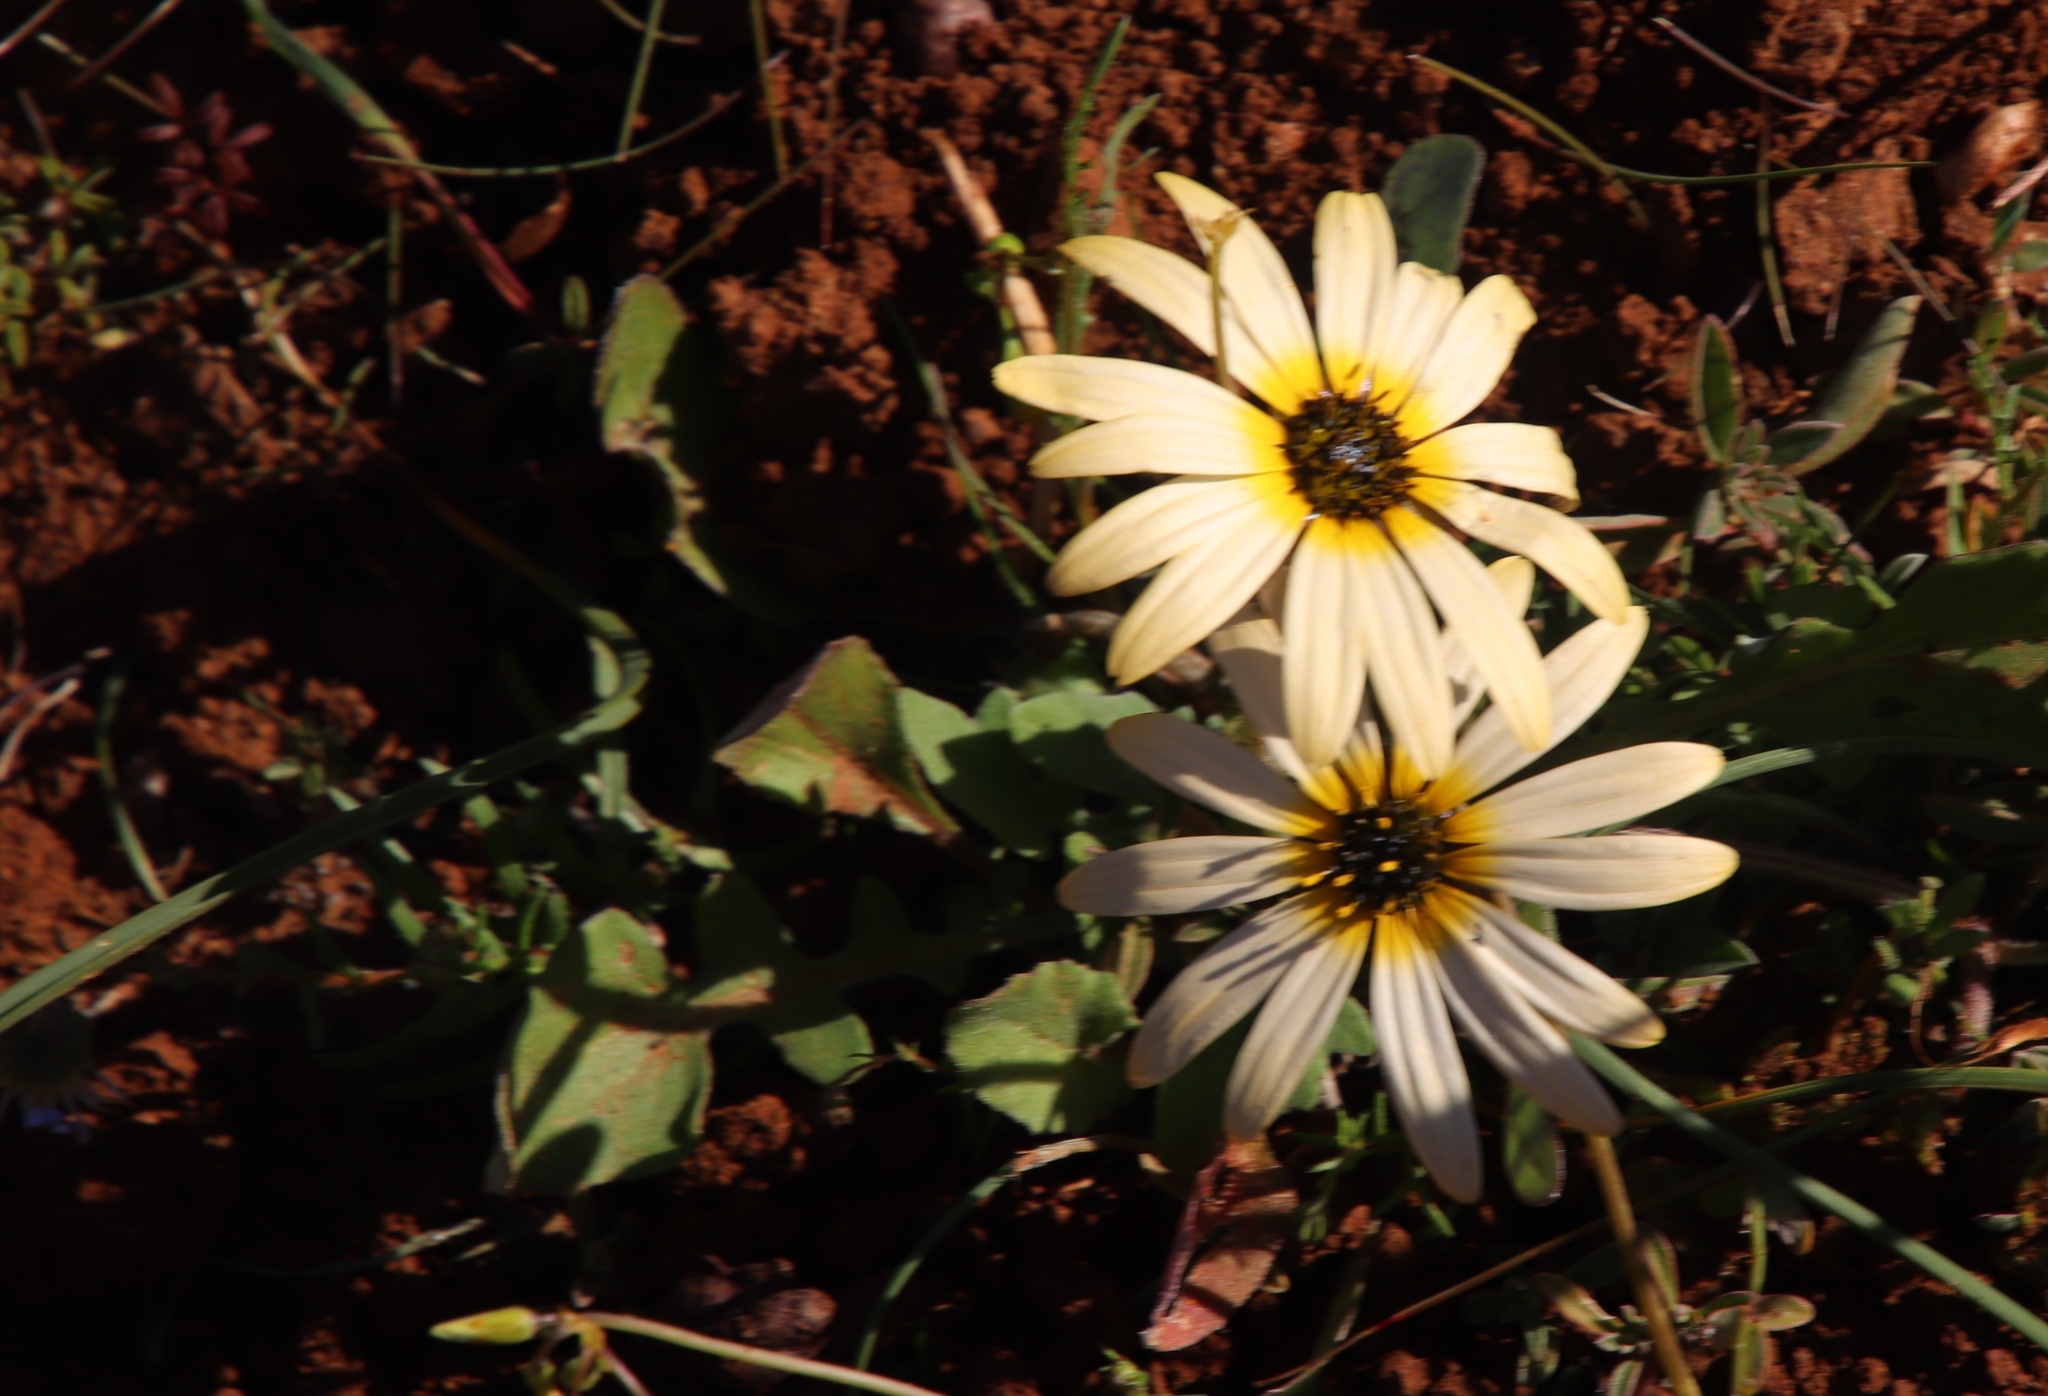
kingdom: Plantae
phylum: Tracheophyta
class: Magnoliopsida
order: Asterales
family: Asteraceae
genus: Arctotheca
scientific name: Arctotheca calendula
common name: Capeweed
